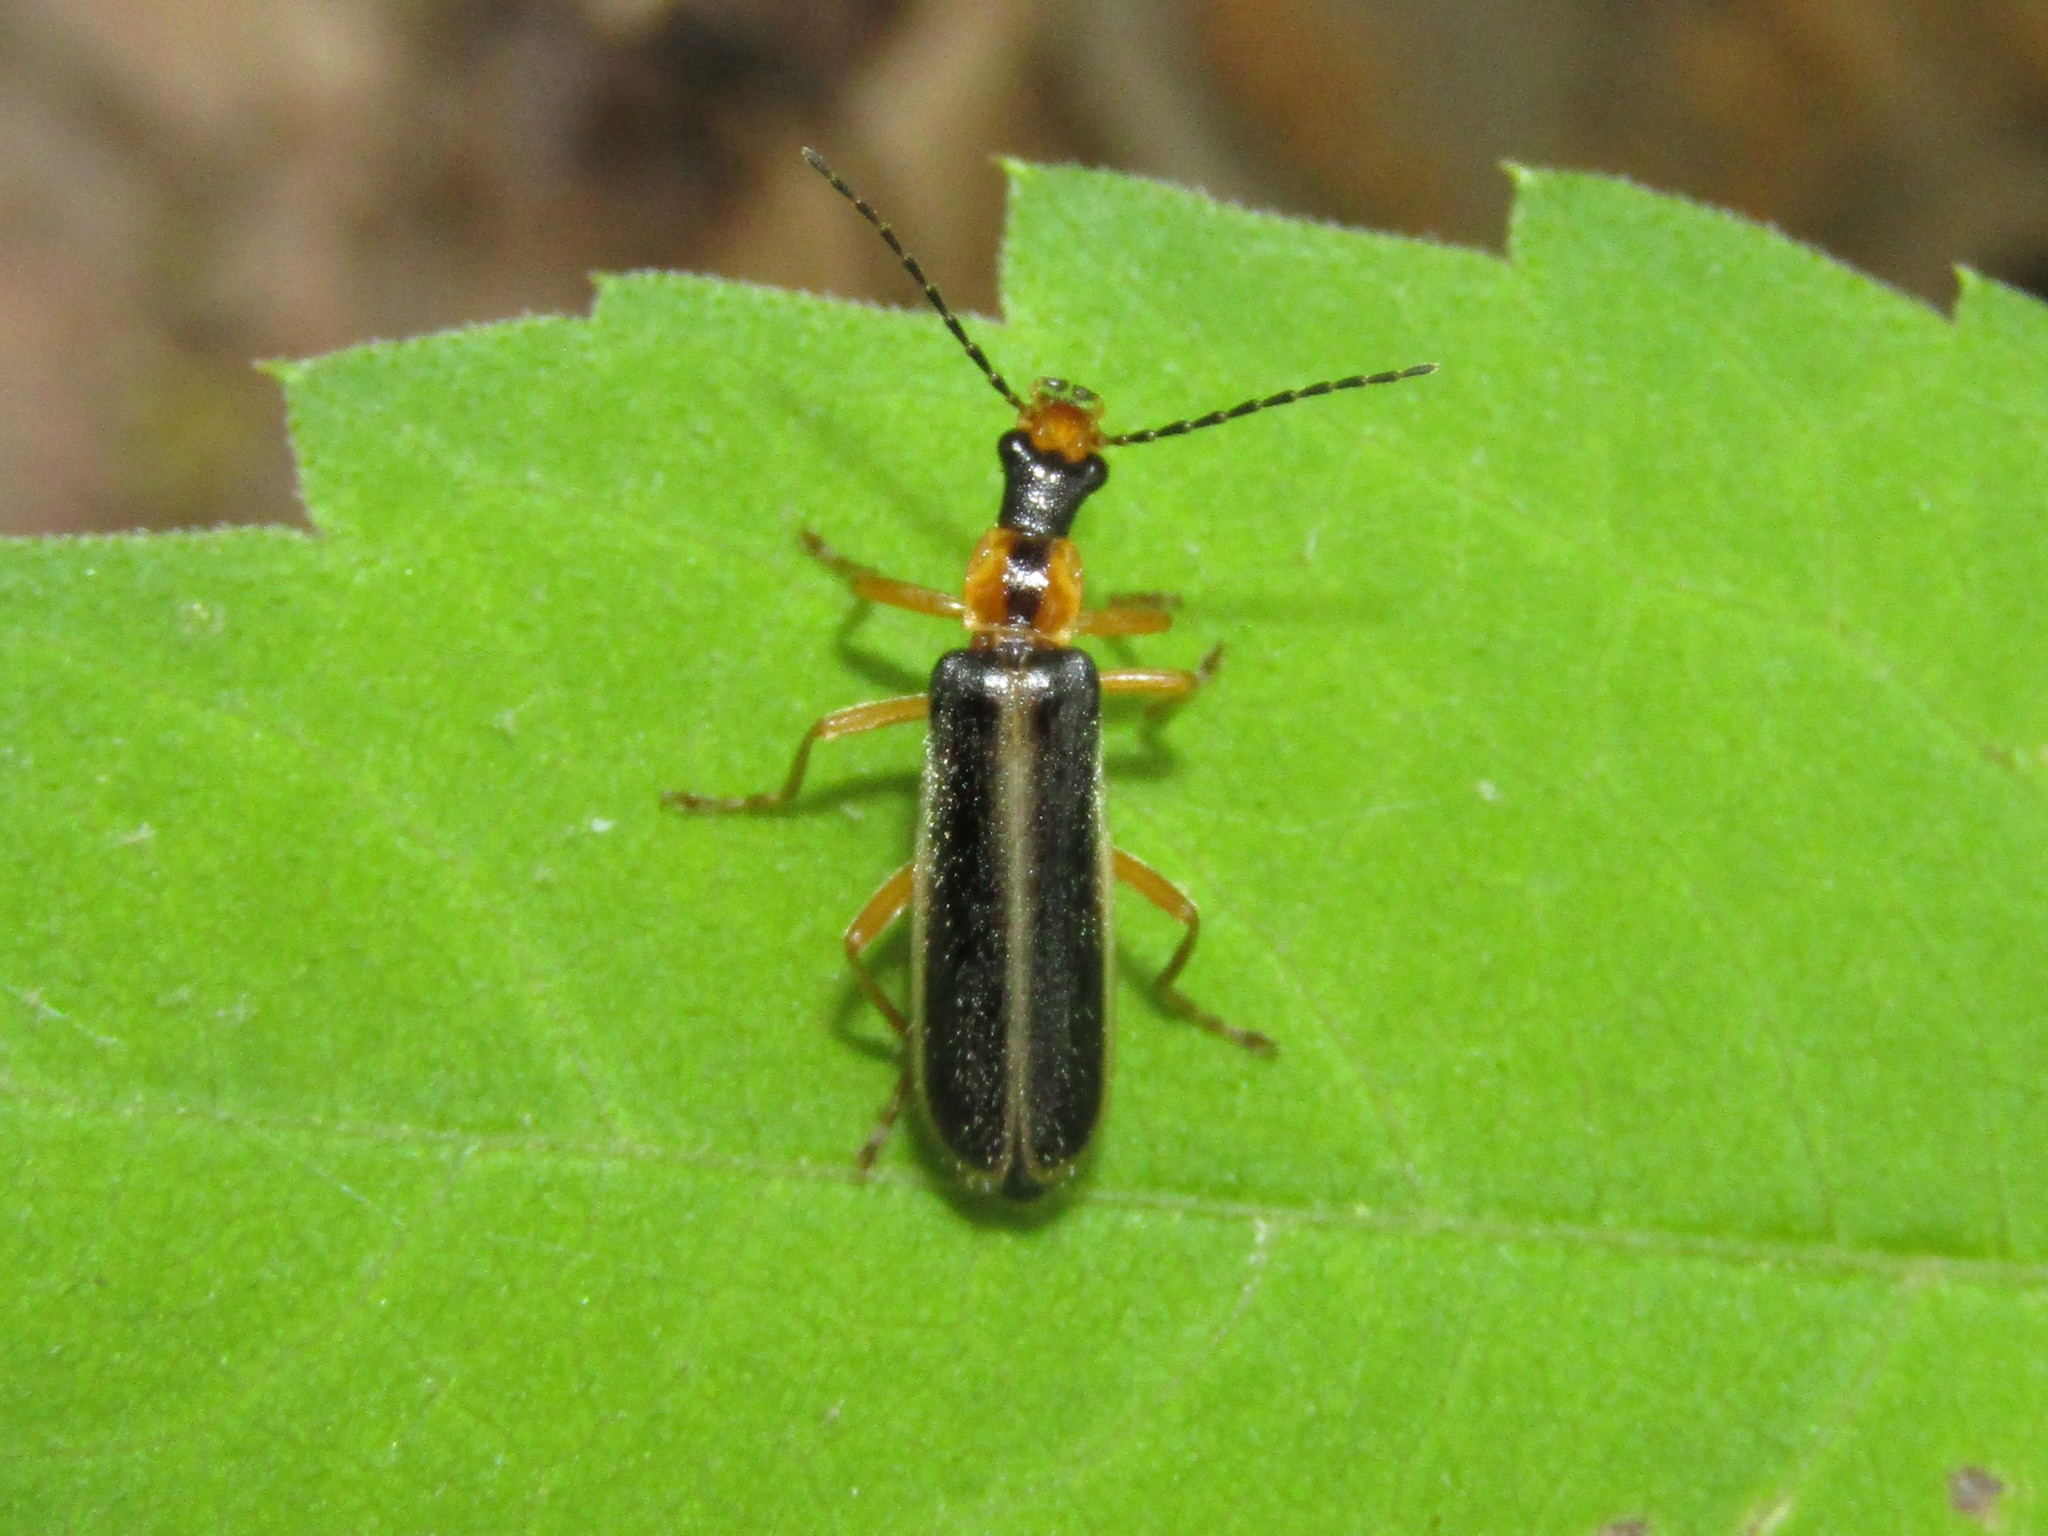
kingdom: Animalia
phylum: Arthropoda
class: Insecta
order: Coleoptera
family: Cantharidae
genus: Podabrus
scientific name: Podabrus brunnicollis
